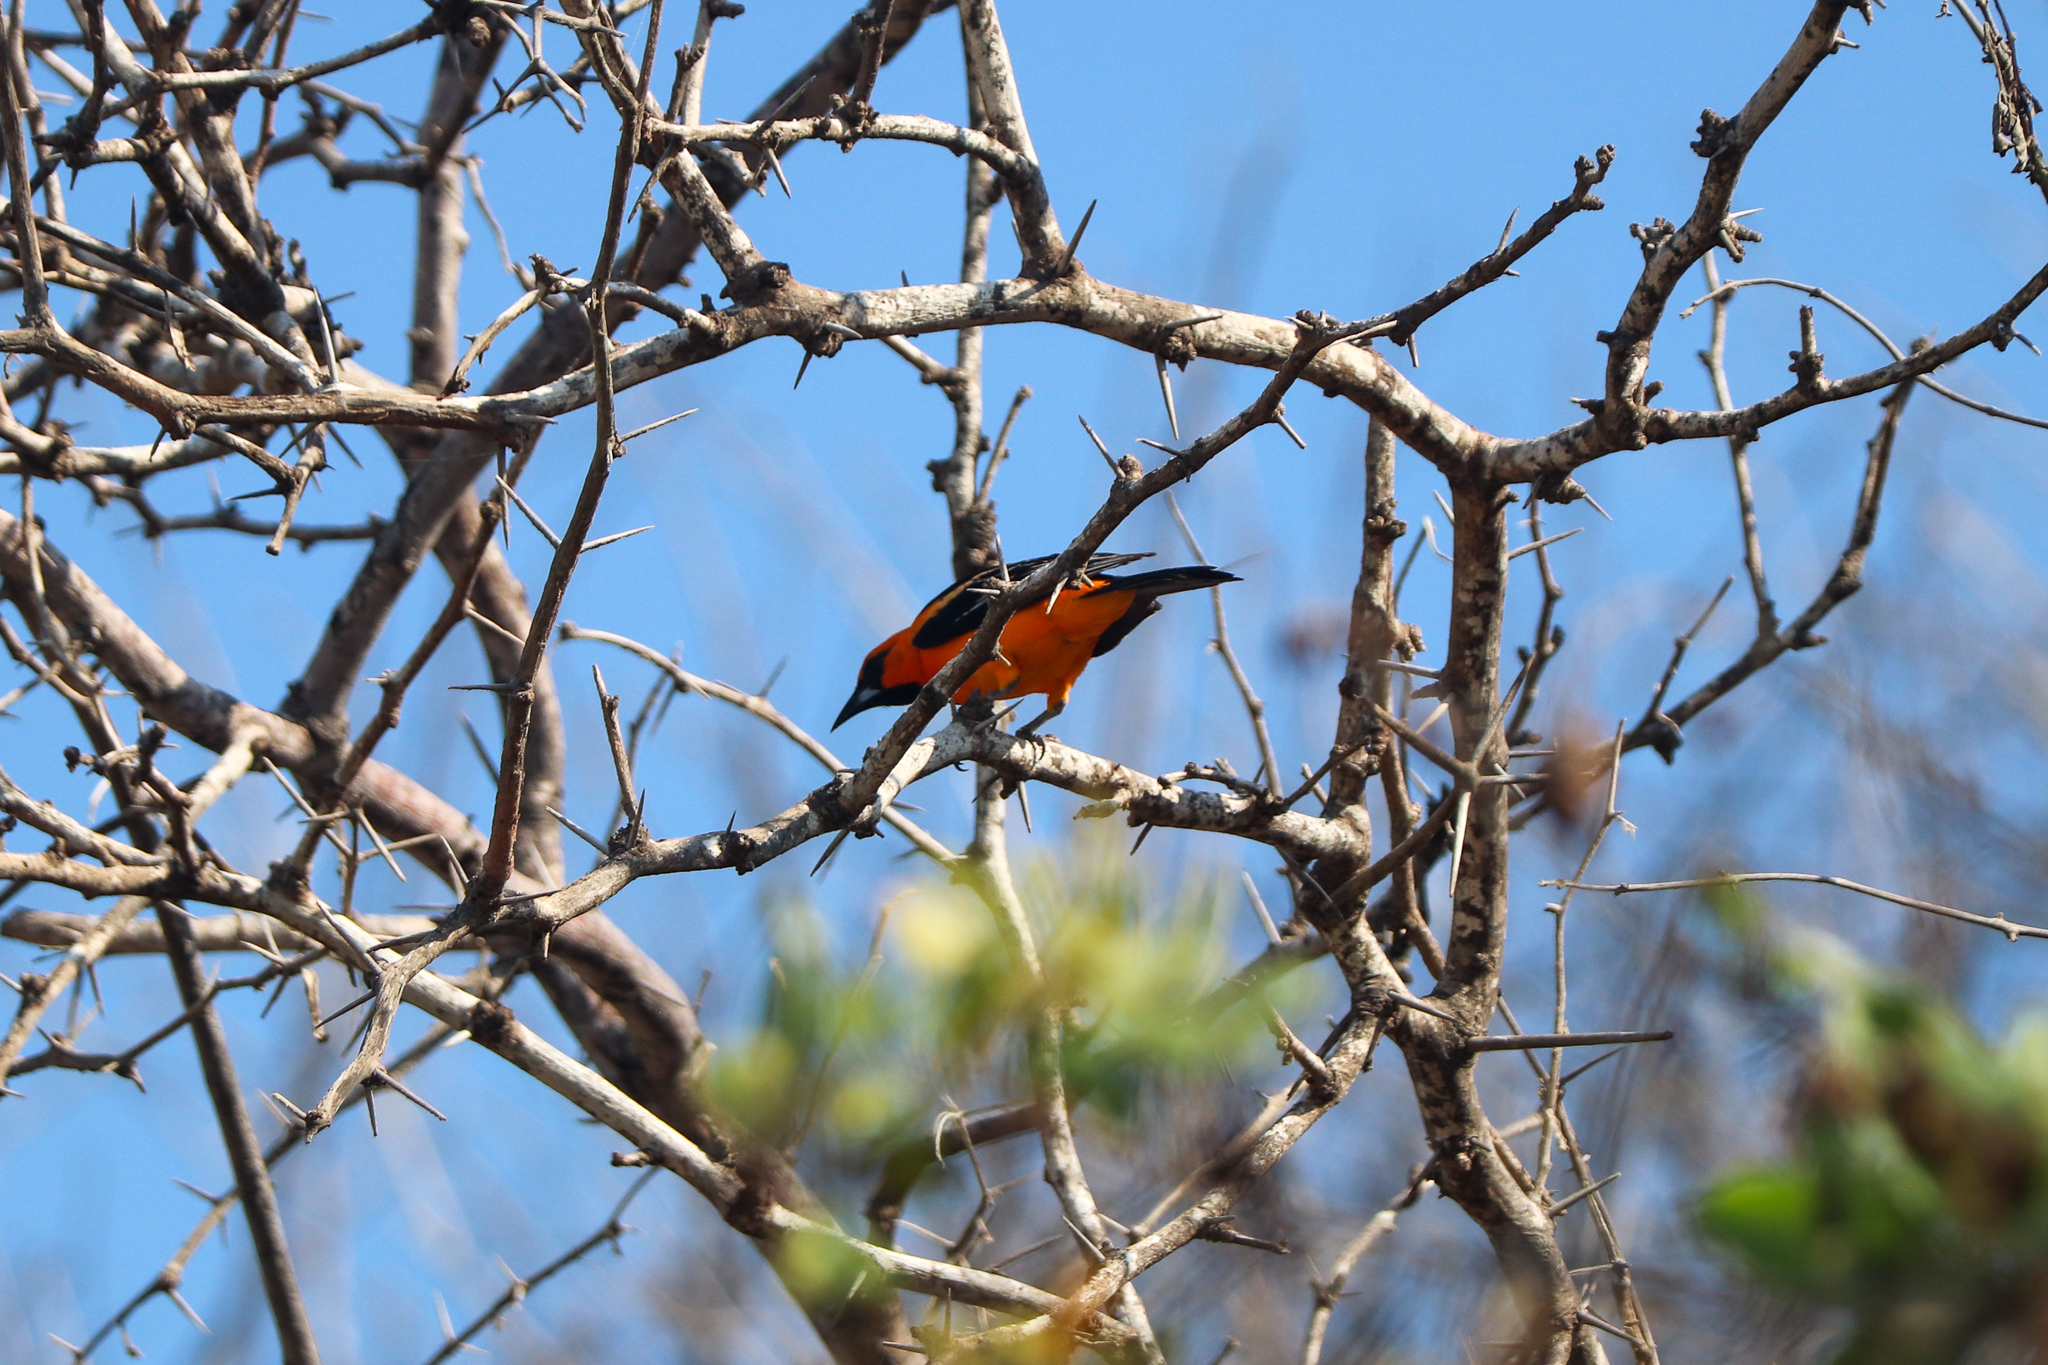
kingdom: Animalia
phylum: Chordata
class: Aves
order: Passeriformes
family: Icteridae
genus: Icterus
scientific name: Icterus gularis
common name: Altamira oriole
